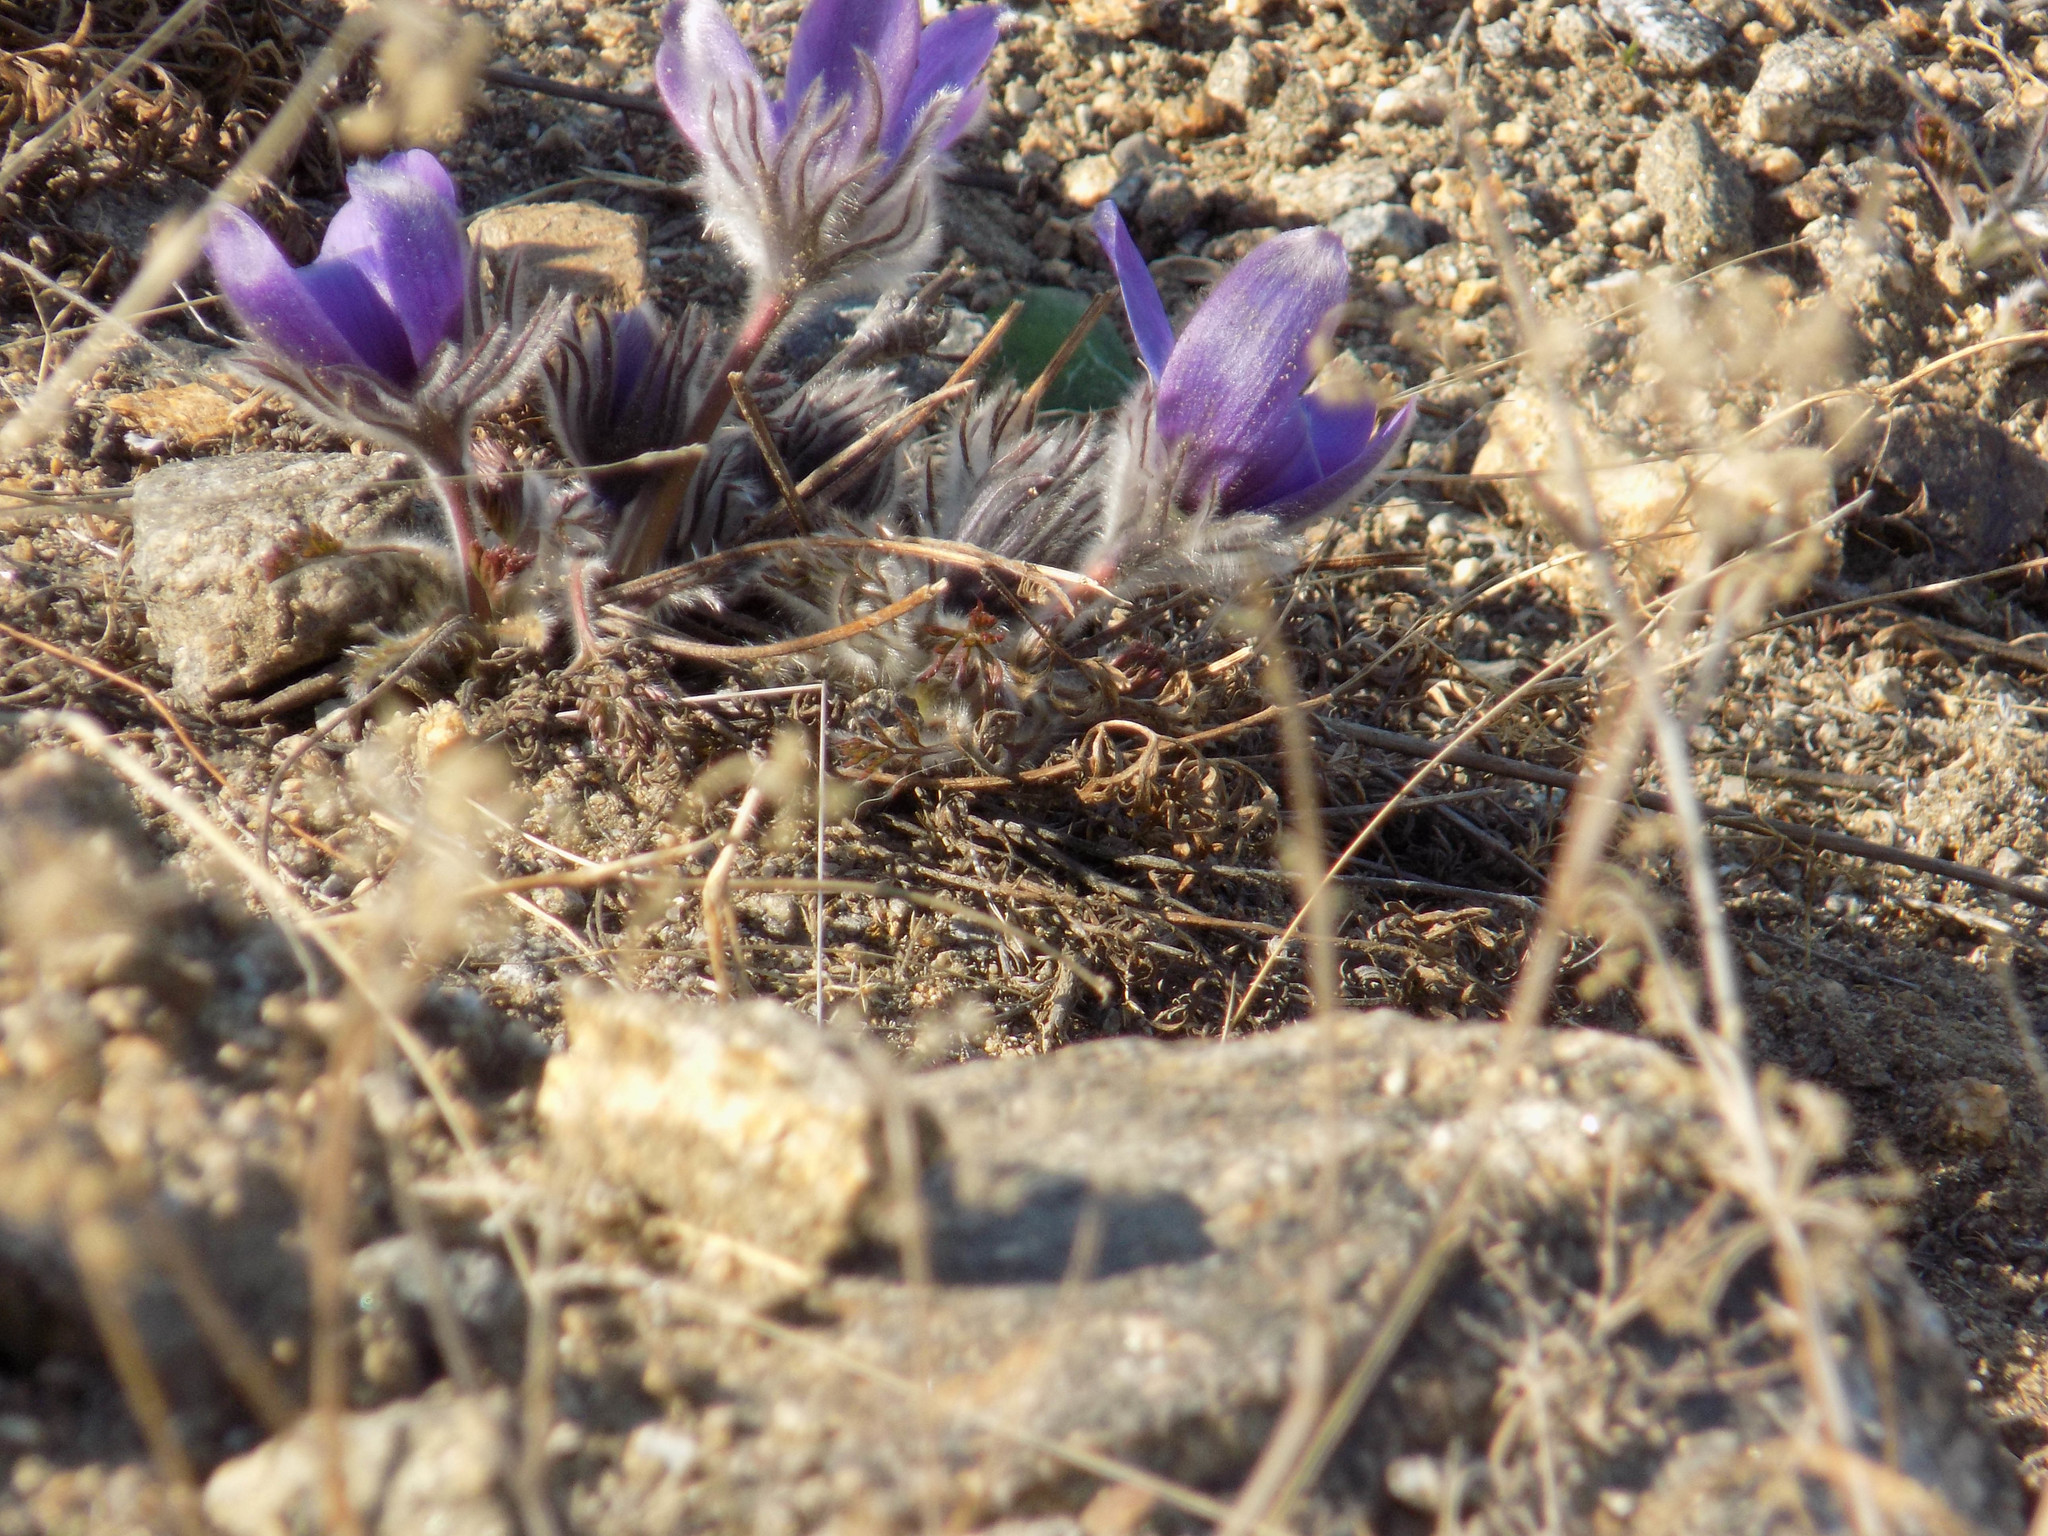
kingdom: Plantae
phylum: Tracheophyta
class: Magnoliopsida
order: Ranunculales
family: Ranunculaceae
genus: Pulsatilla
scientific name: Pulsatilla turczaninovii
